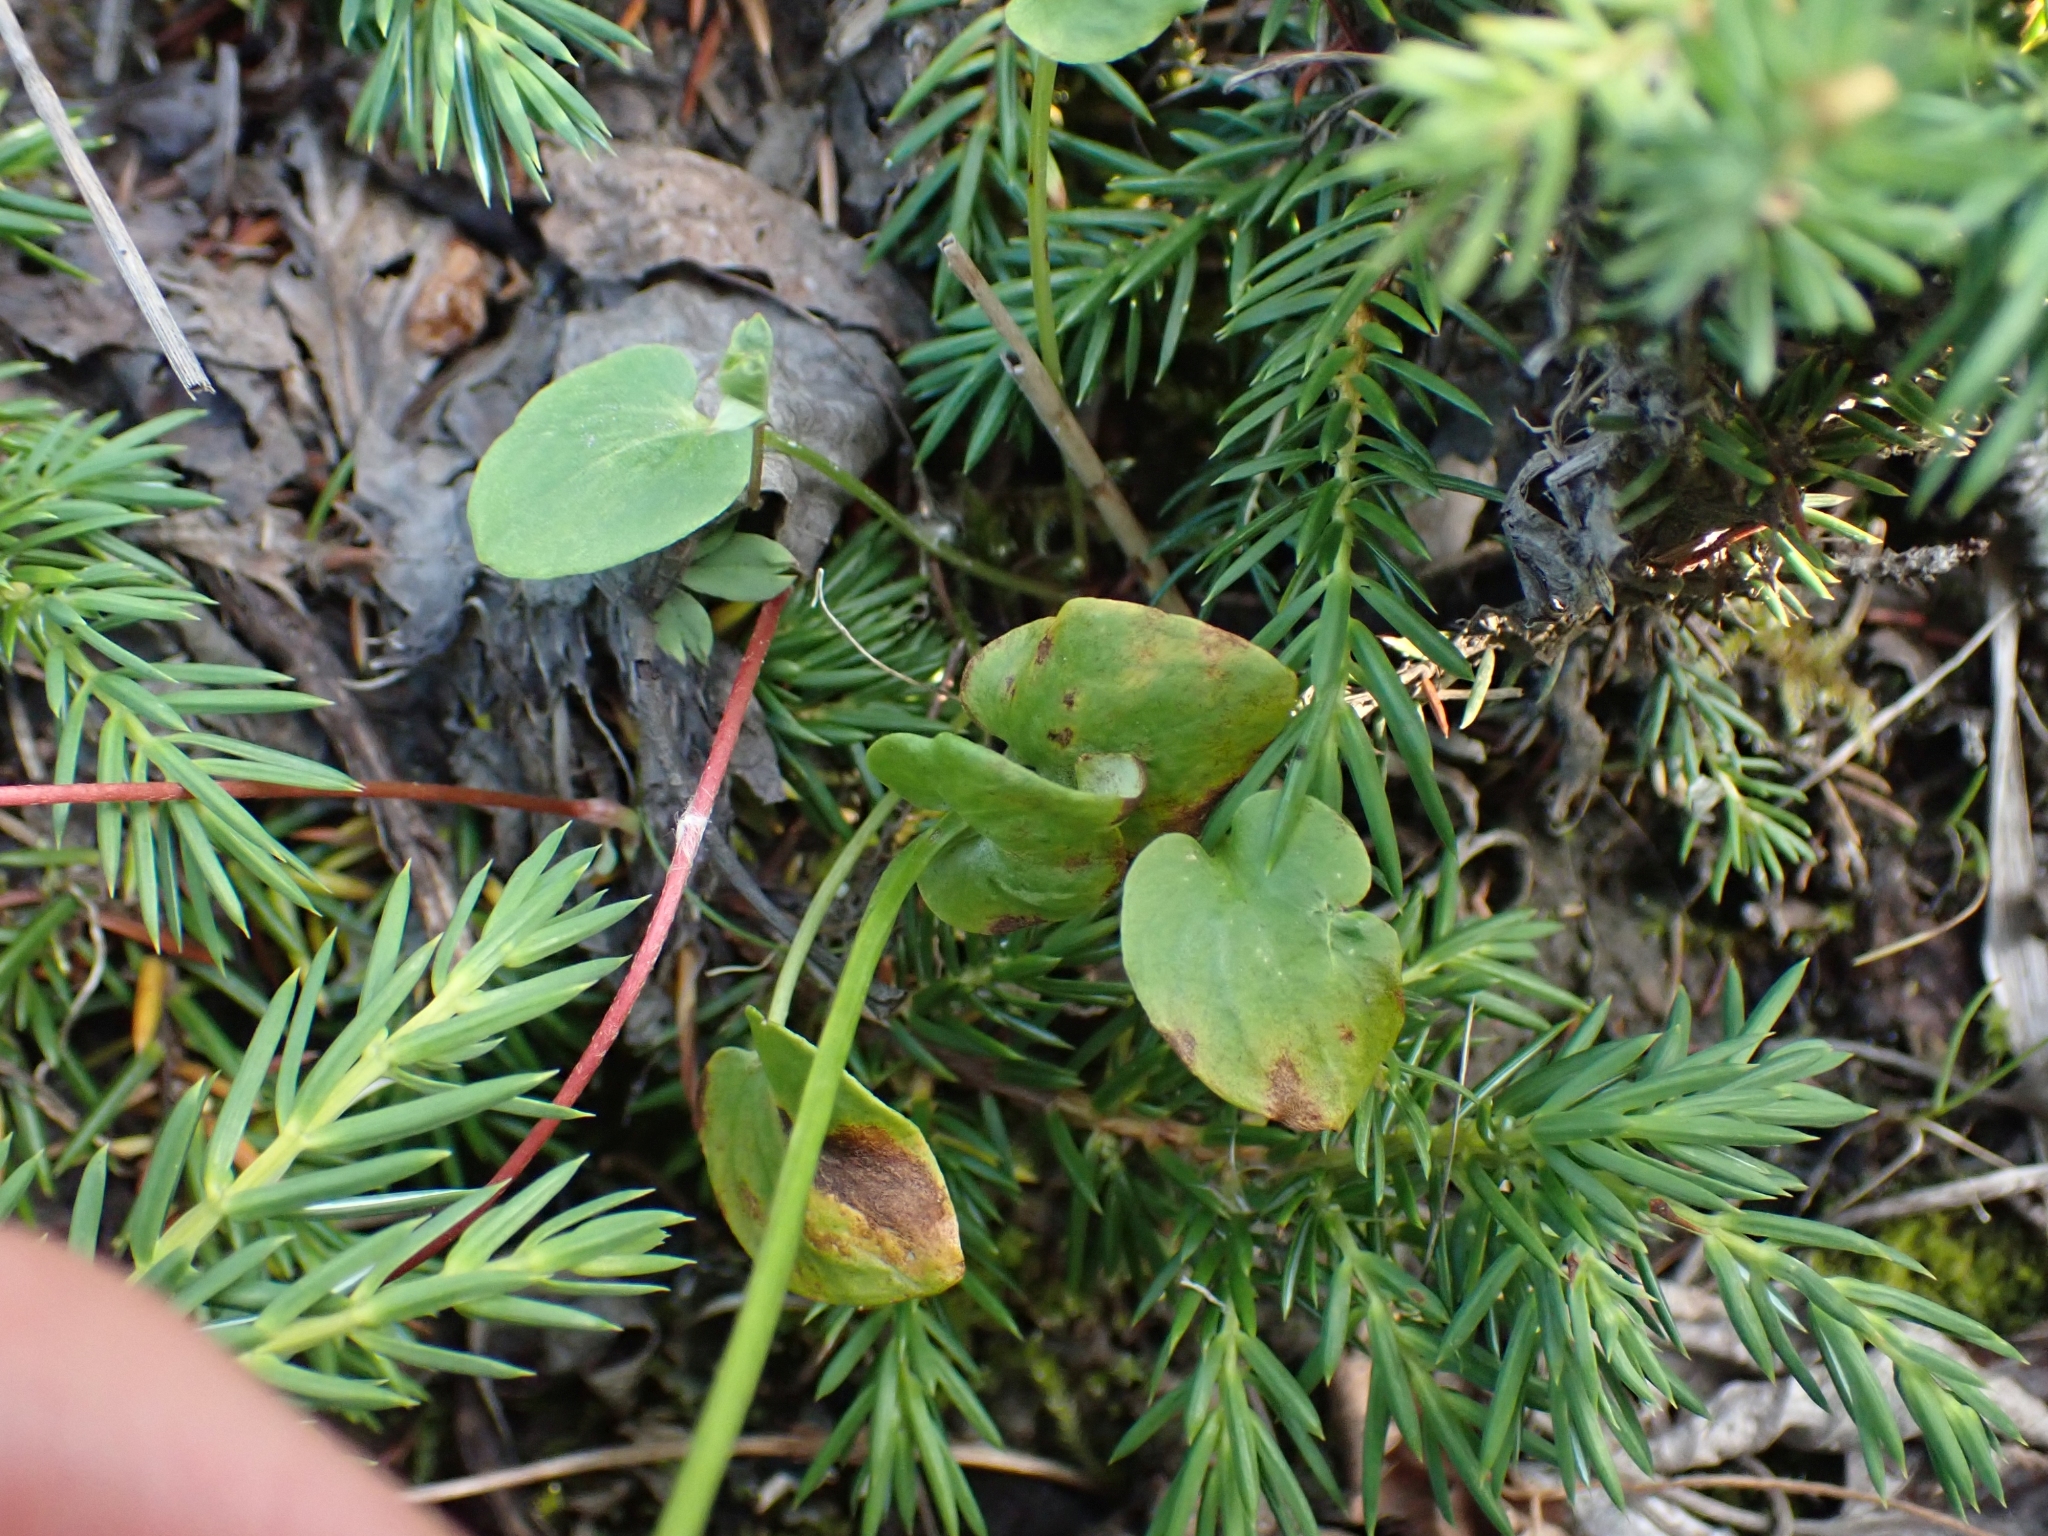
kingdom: Plantae
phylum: Tracheophyta
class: Magnoliopsida
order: Celastrales
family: Parnassiaceae
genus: Parnassia
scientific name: Parnassia palustris
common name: Grass-of-parnassus
